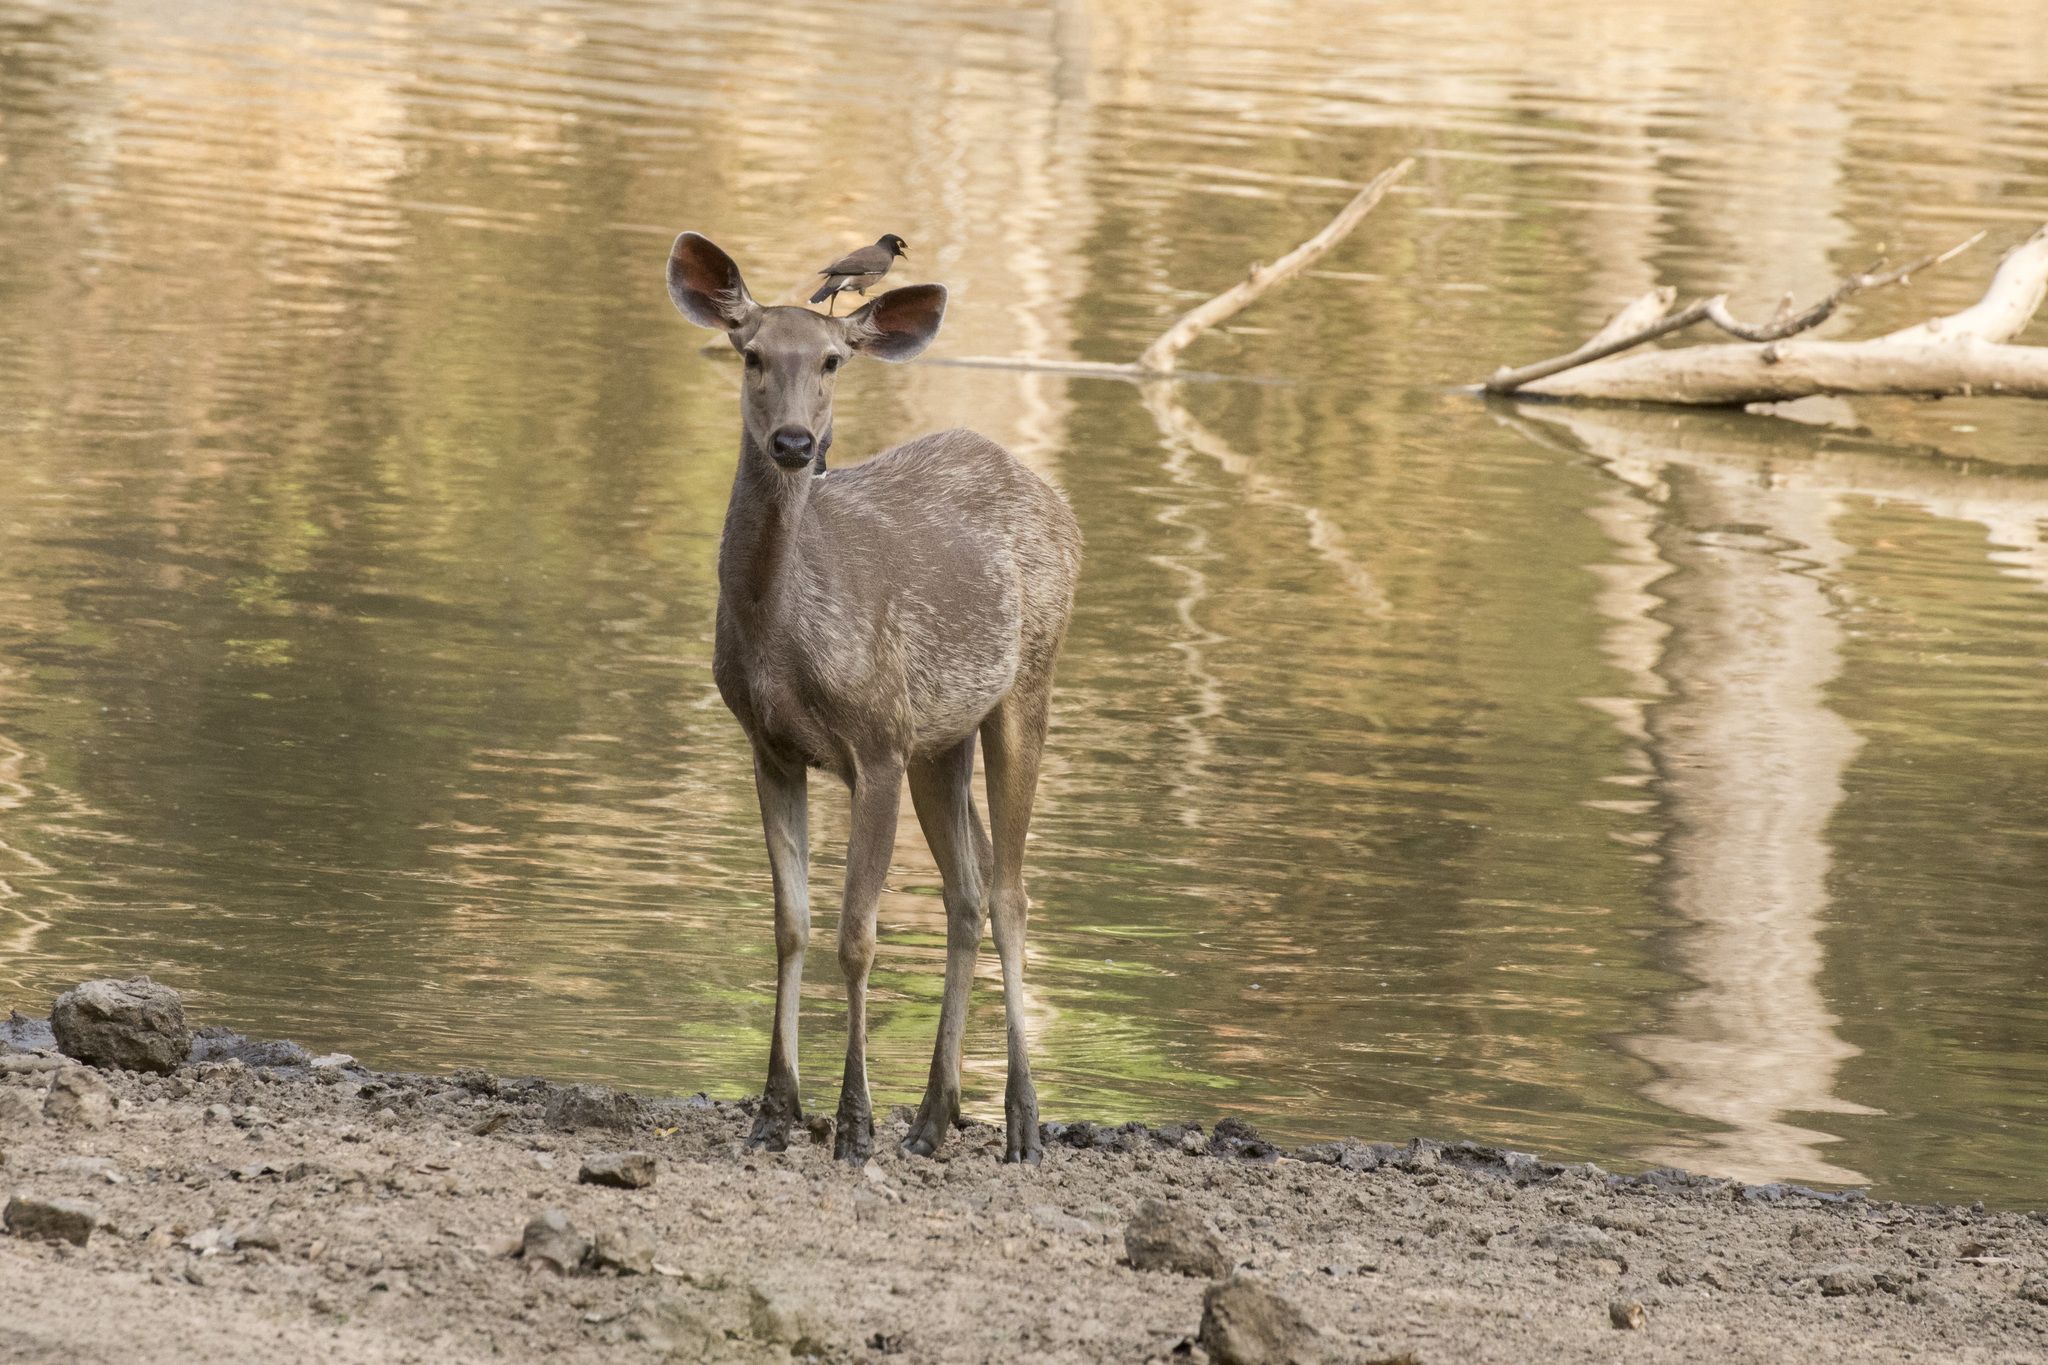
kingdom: Animalia
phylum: Chordata
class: Mammalia
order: Artiodactyla
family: Cervidae
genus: Rusa
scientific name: Rusa unicolor
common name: Sambar
